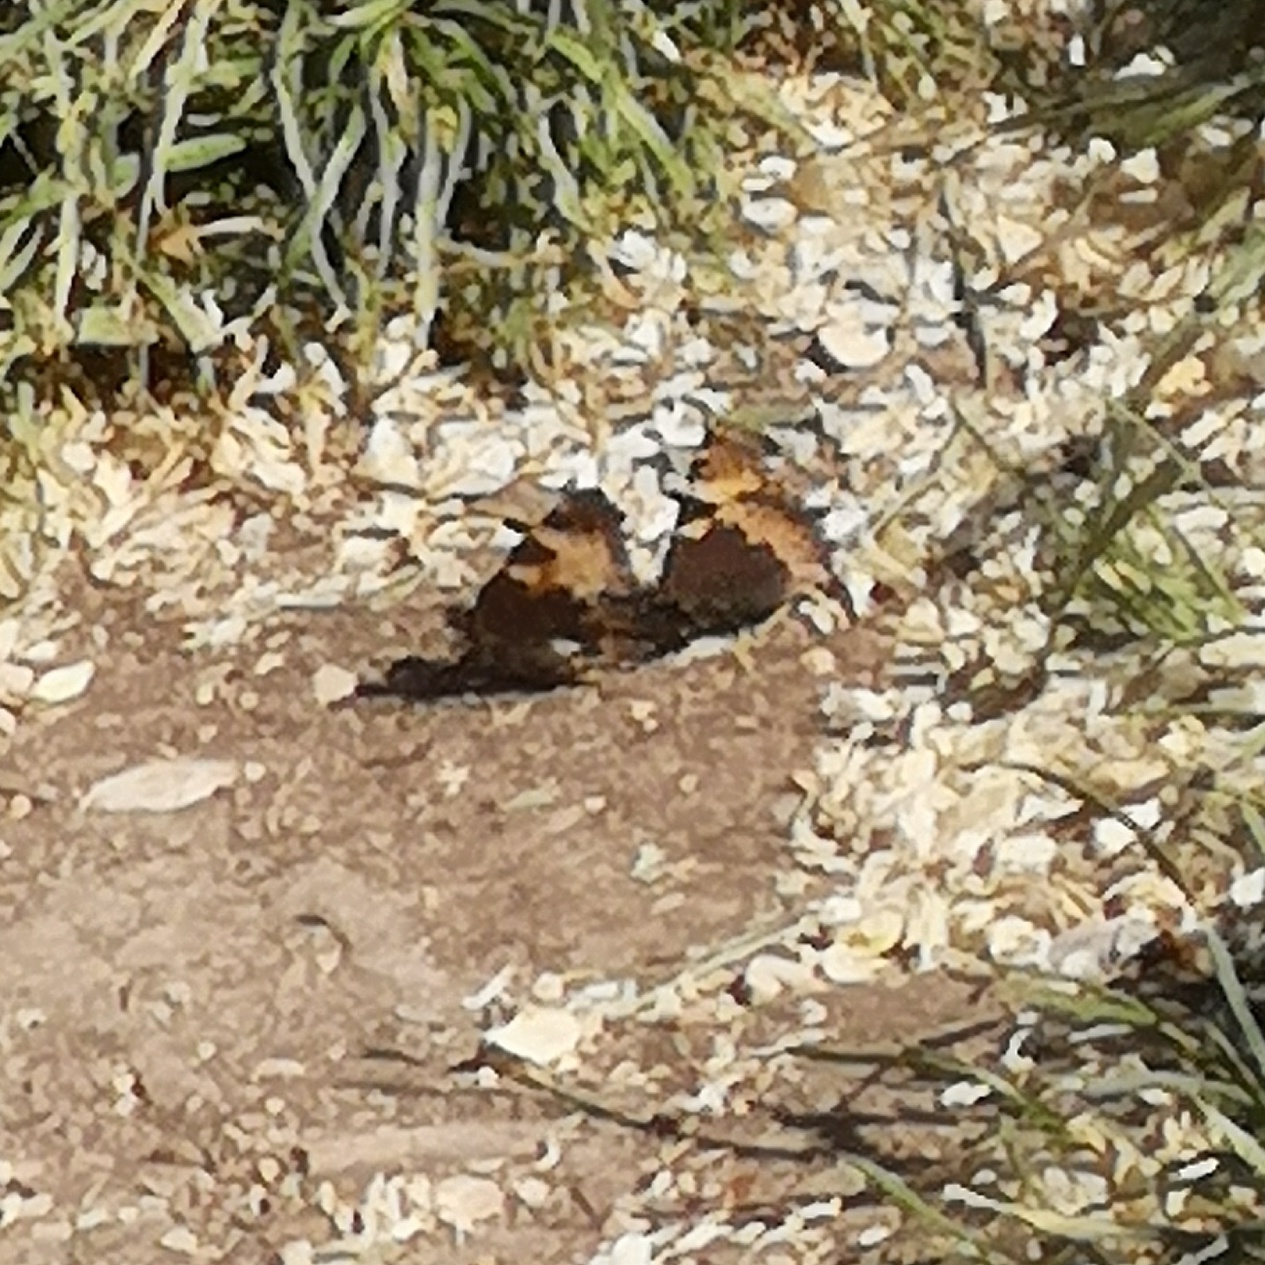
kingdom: Animalia
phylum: Arthropoda
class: Insecta
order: Lepidoptera
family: Nymphalidae
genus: Aglais
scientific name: Aglais urticae
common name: Small tortoiseshell
